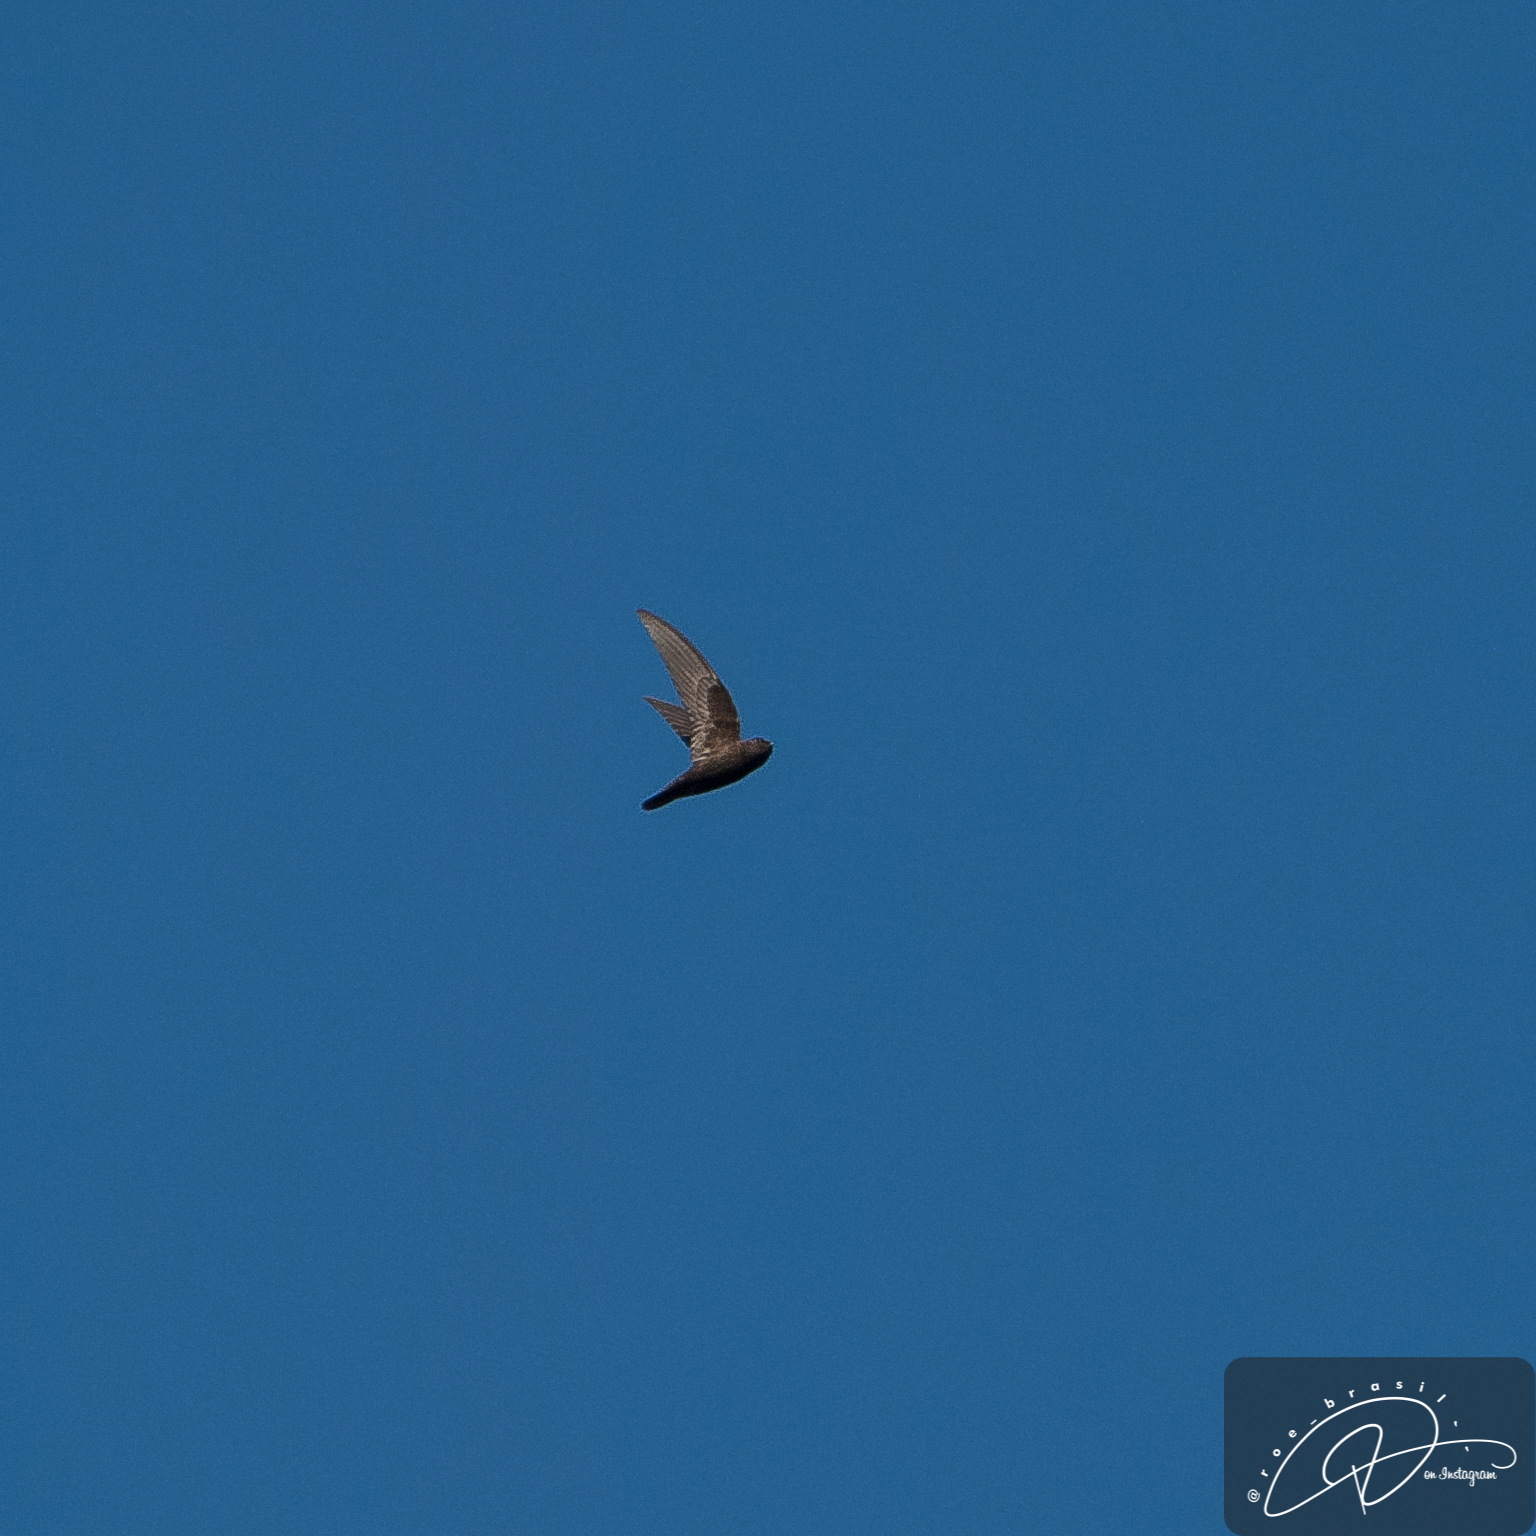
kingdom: Animalia
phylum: Chordata
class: Aves
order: Apodiformes
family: Apodidae
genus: Cypseloides
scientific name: Cypseloides senex
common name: Great dusky swift
